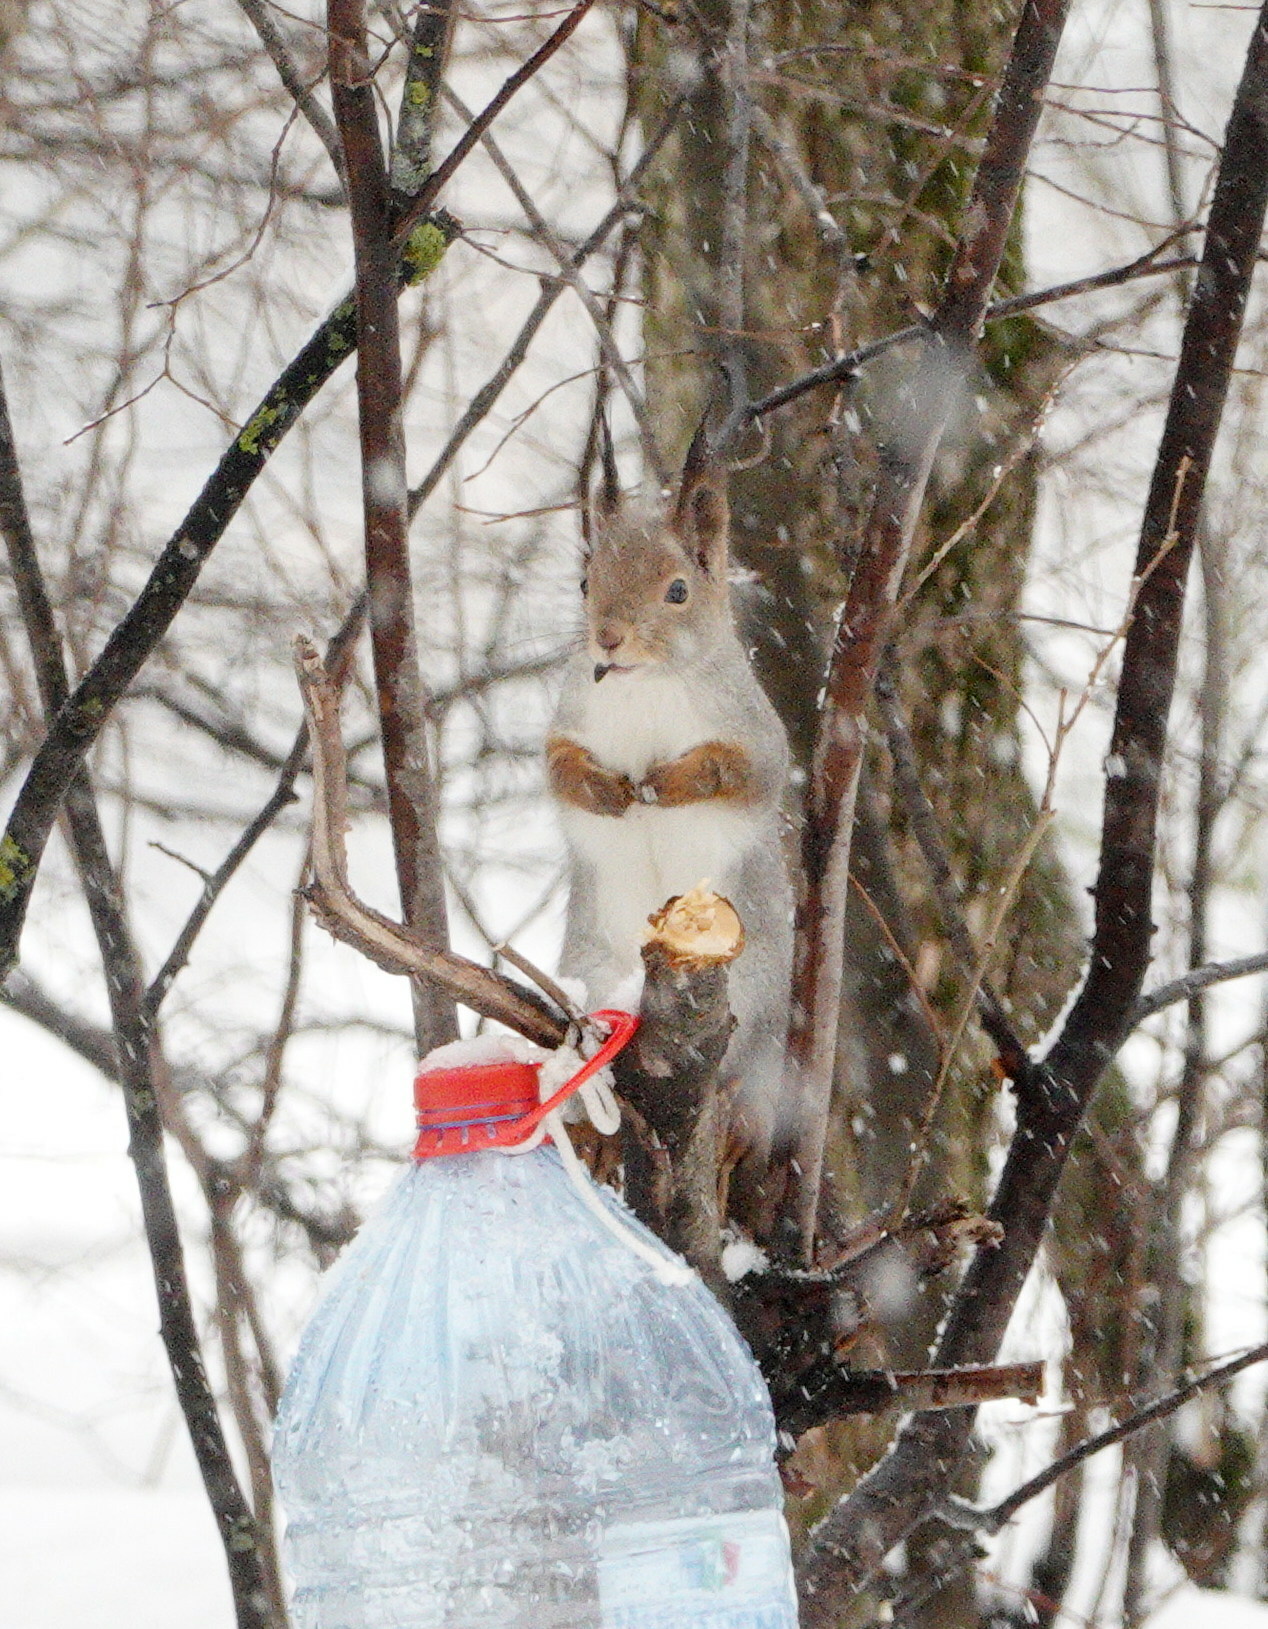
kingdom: Animalia
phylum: Chordata
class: Mammalia
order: Rodentia
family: Sciuridae
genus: Sciurus
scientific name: Sciurus vulgaris
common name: Eurasian red squirrel
